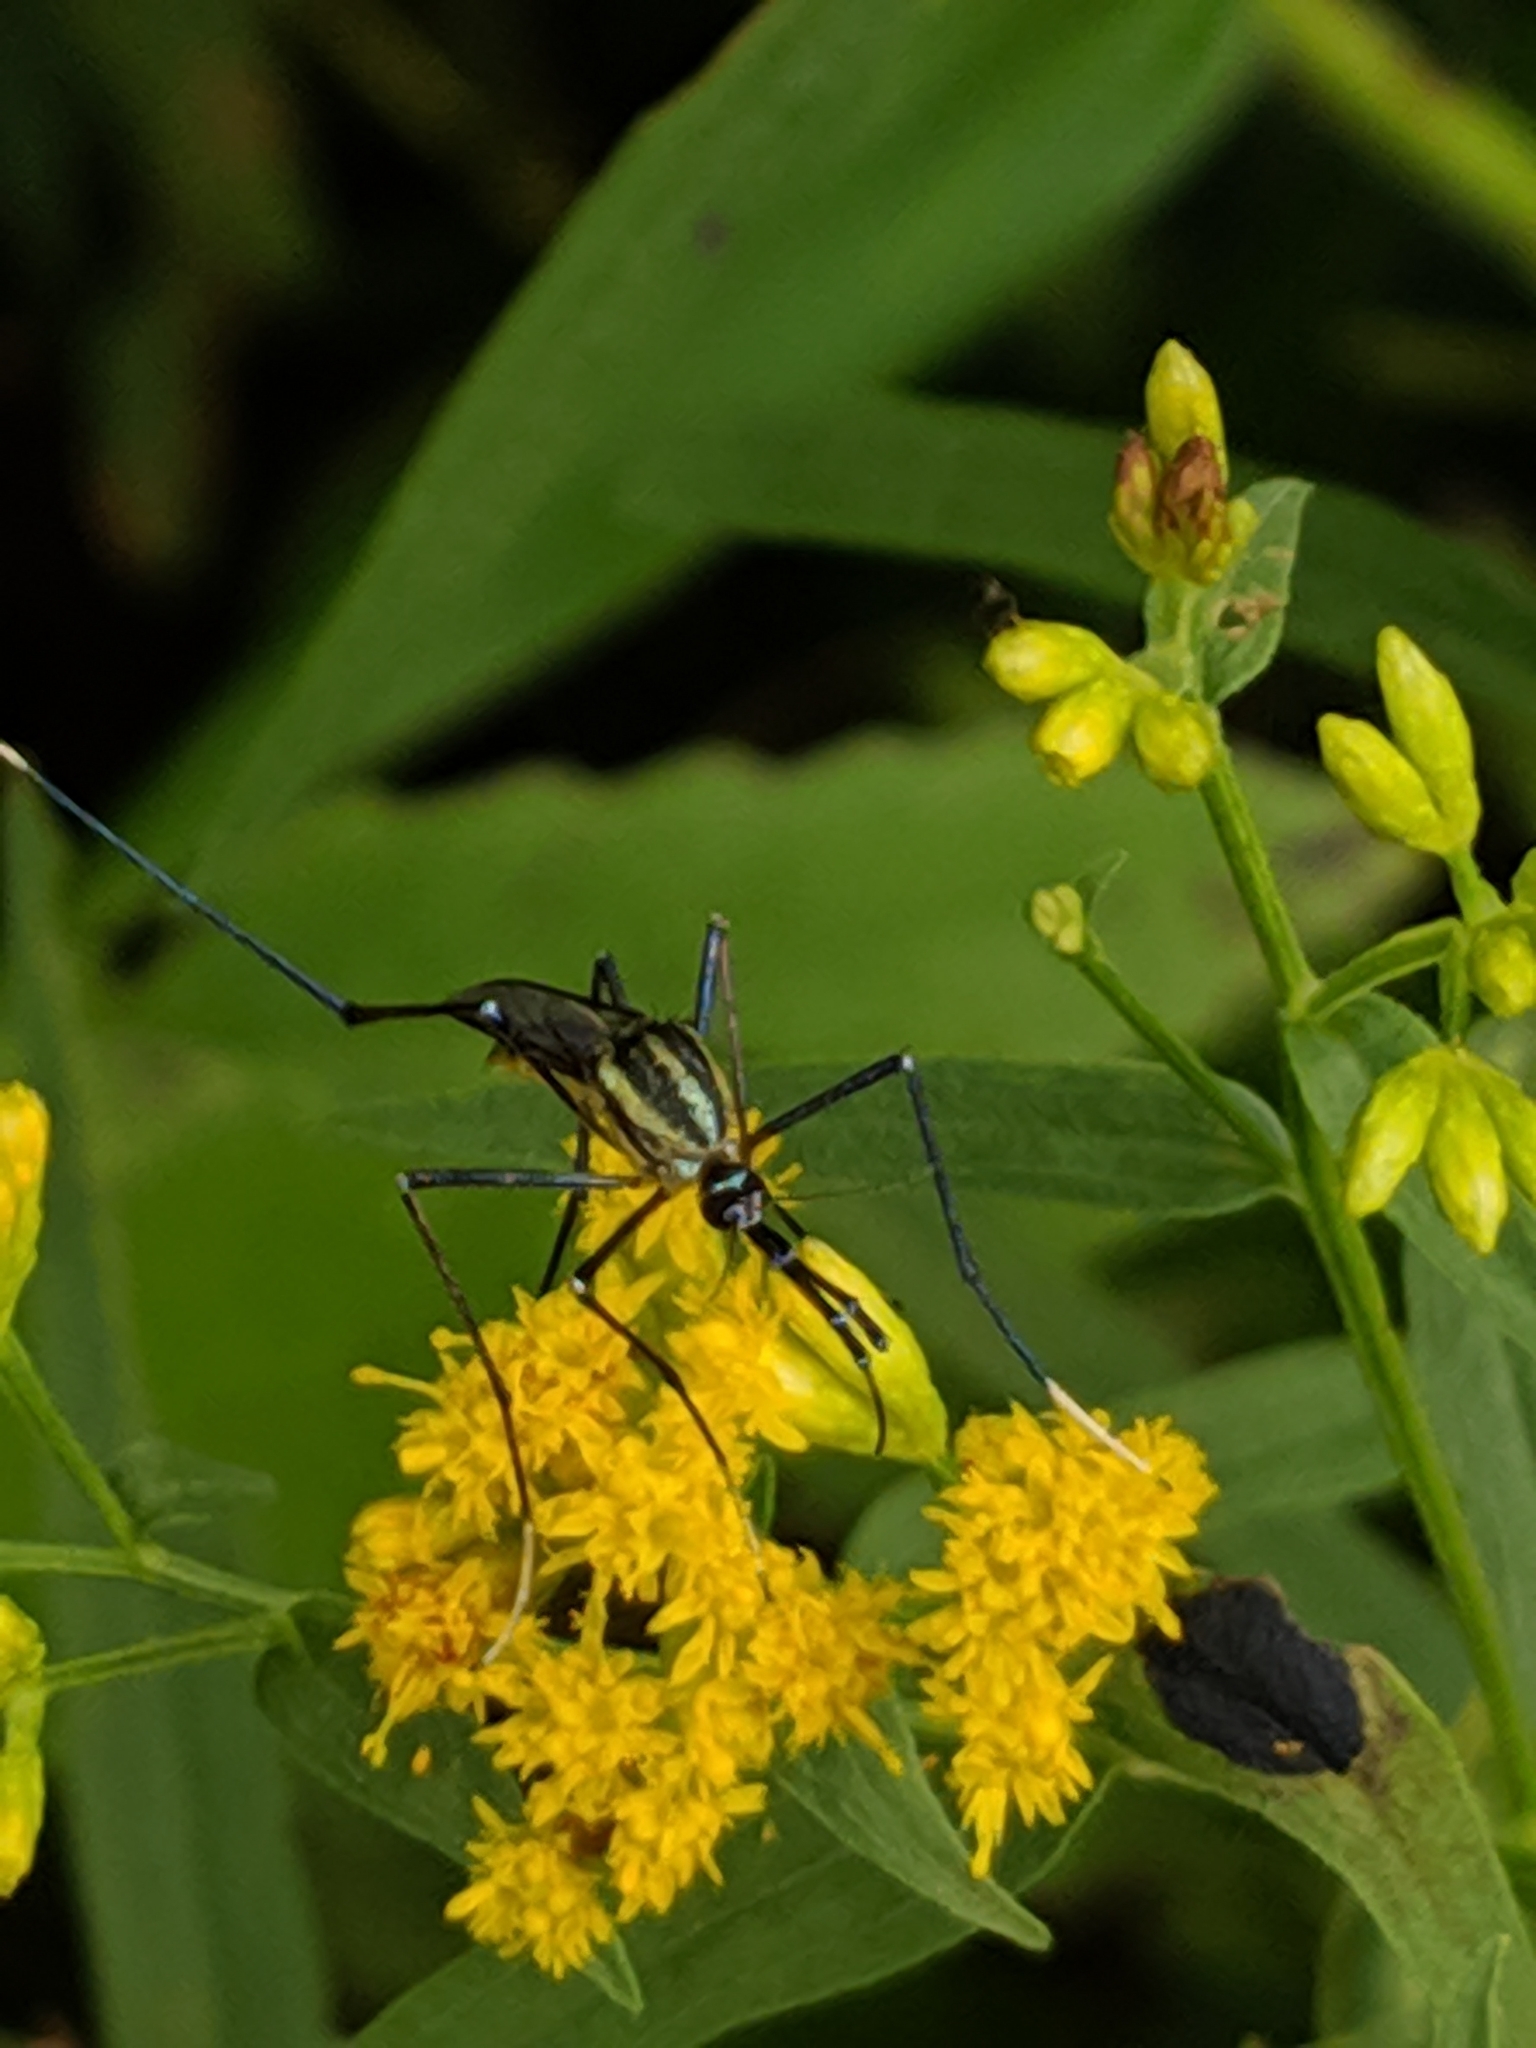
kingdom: Animalia
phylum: Arthropoda
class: Insecta
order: Diptera
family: Culicidae
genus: Toxorhynchites
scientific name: Toxorhynchites rutilus
